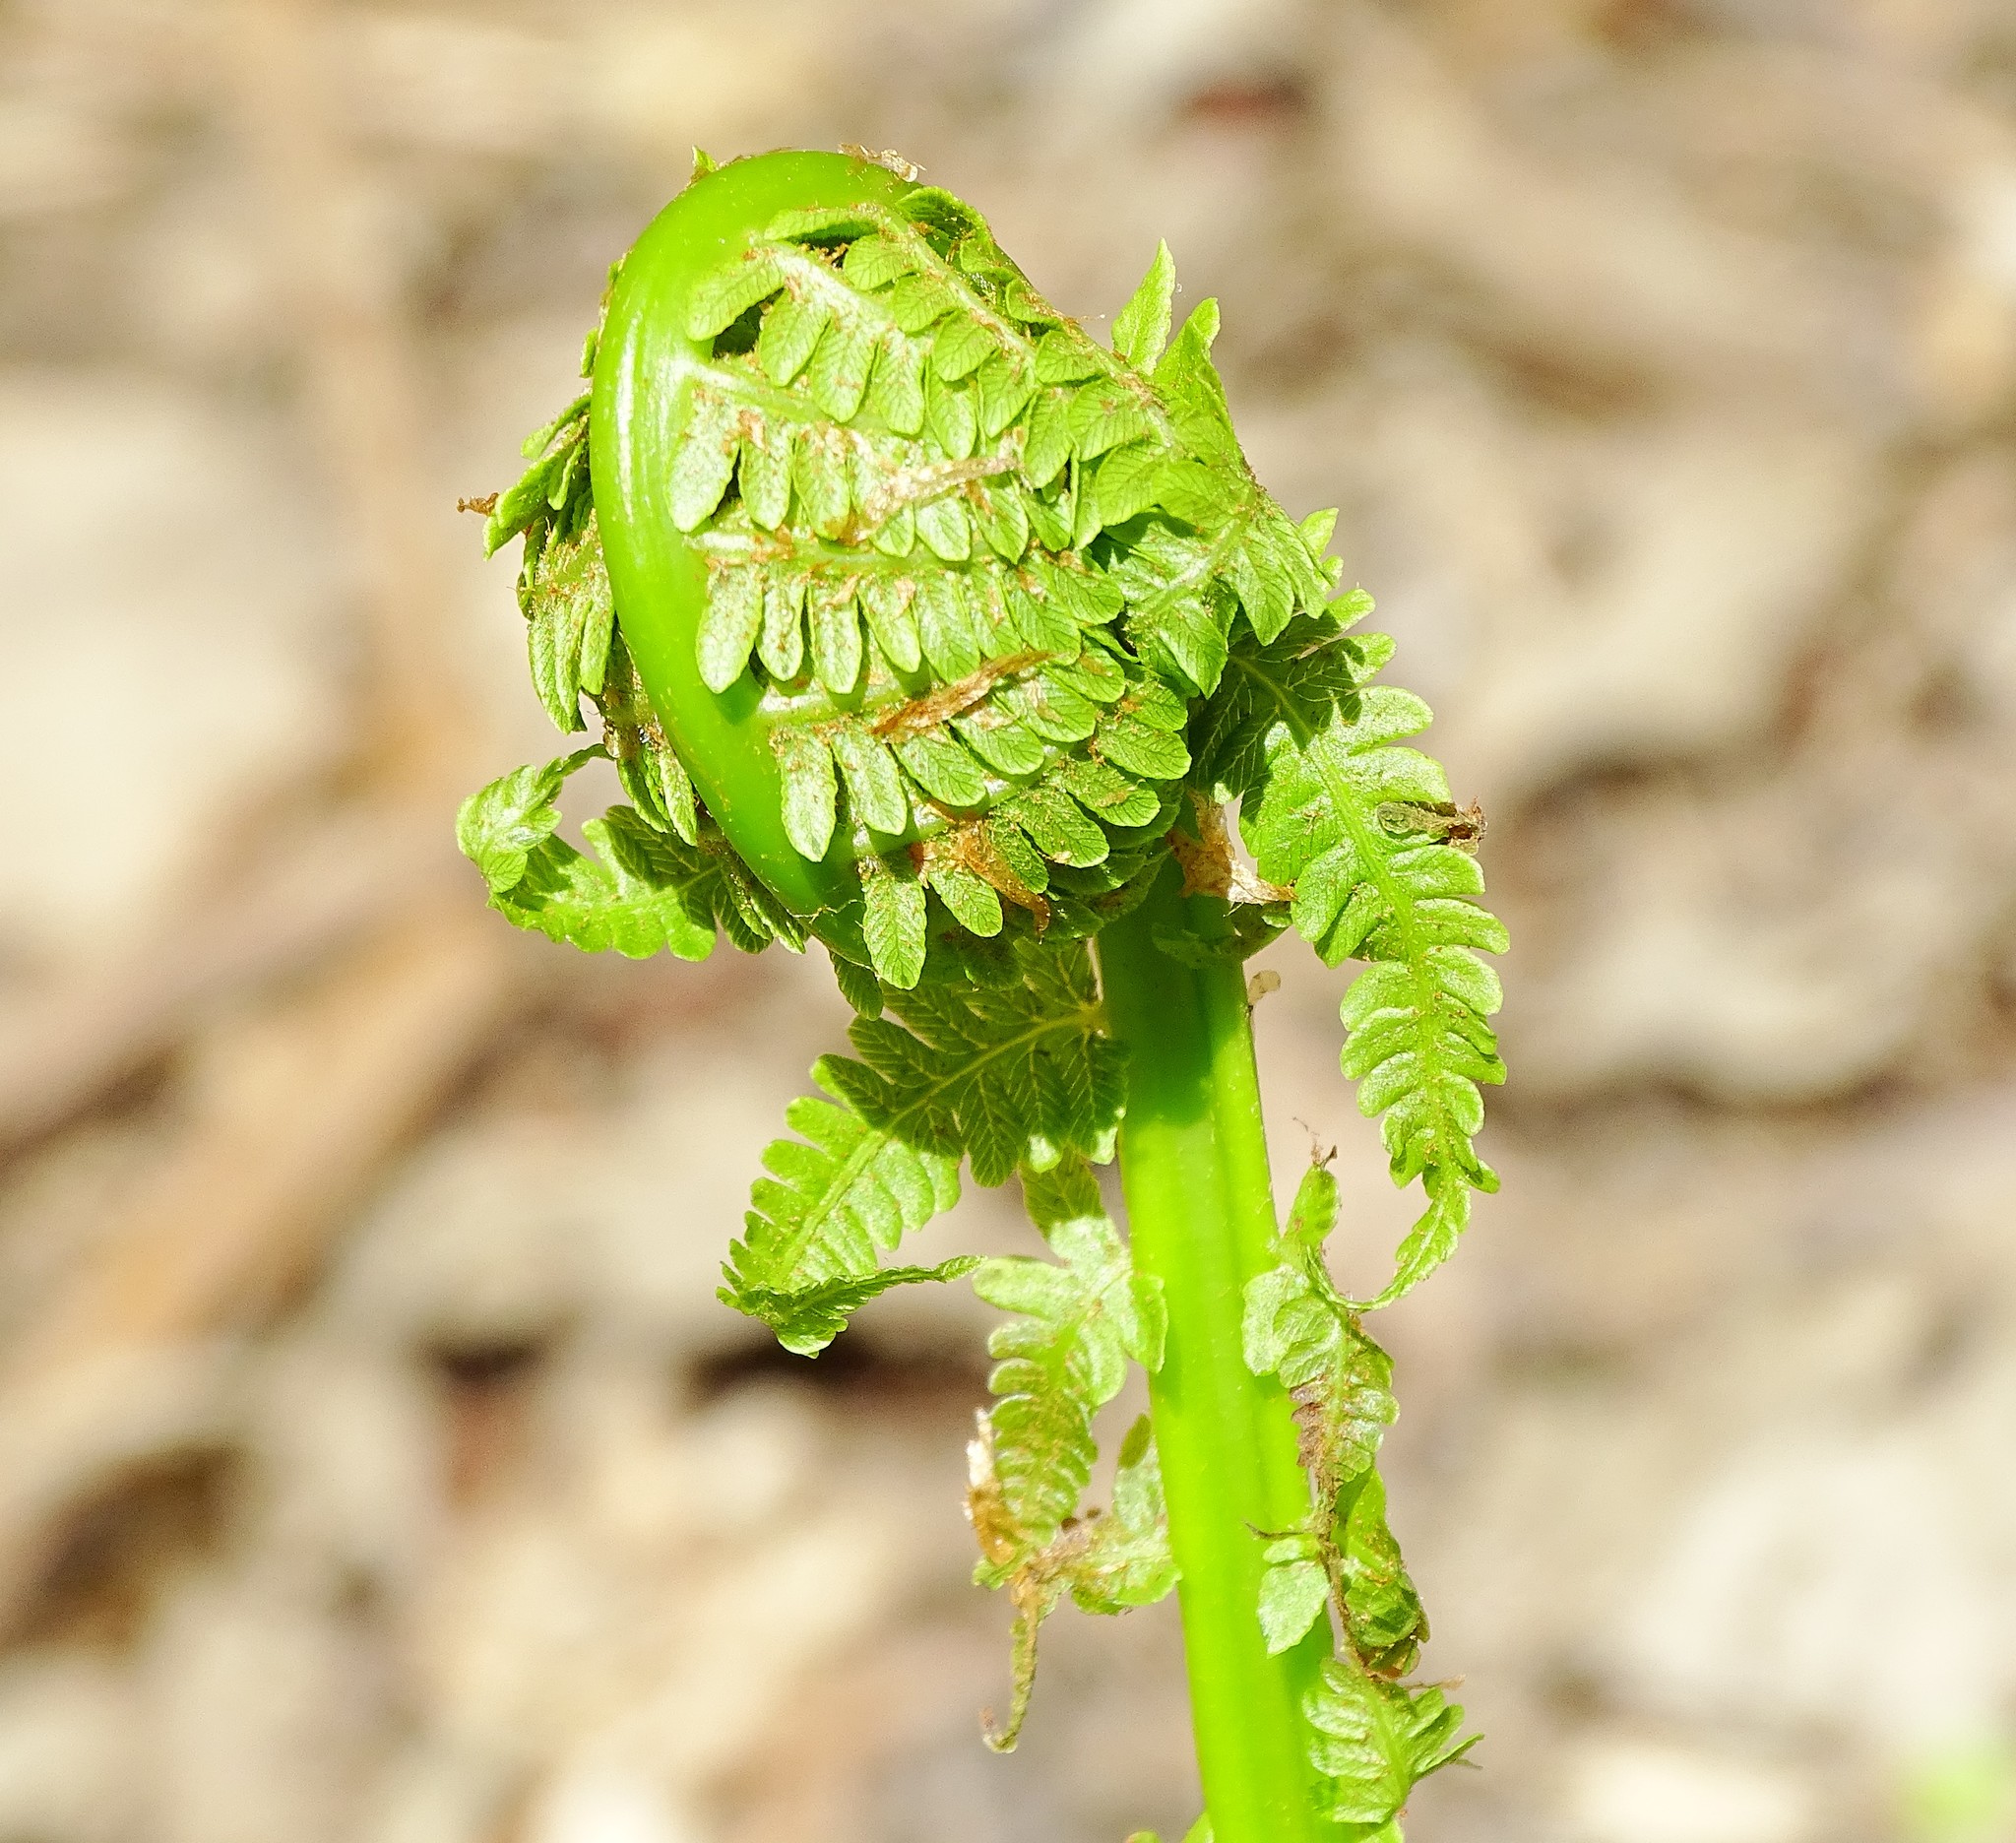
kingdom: Plantae
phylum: Tracheophyta
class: Polypodiopsida
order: Polypodiales
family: Onocleaceae
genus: Matteuccia
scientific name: Matteuccia struthiopteris
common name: Ostrich fern
